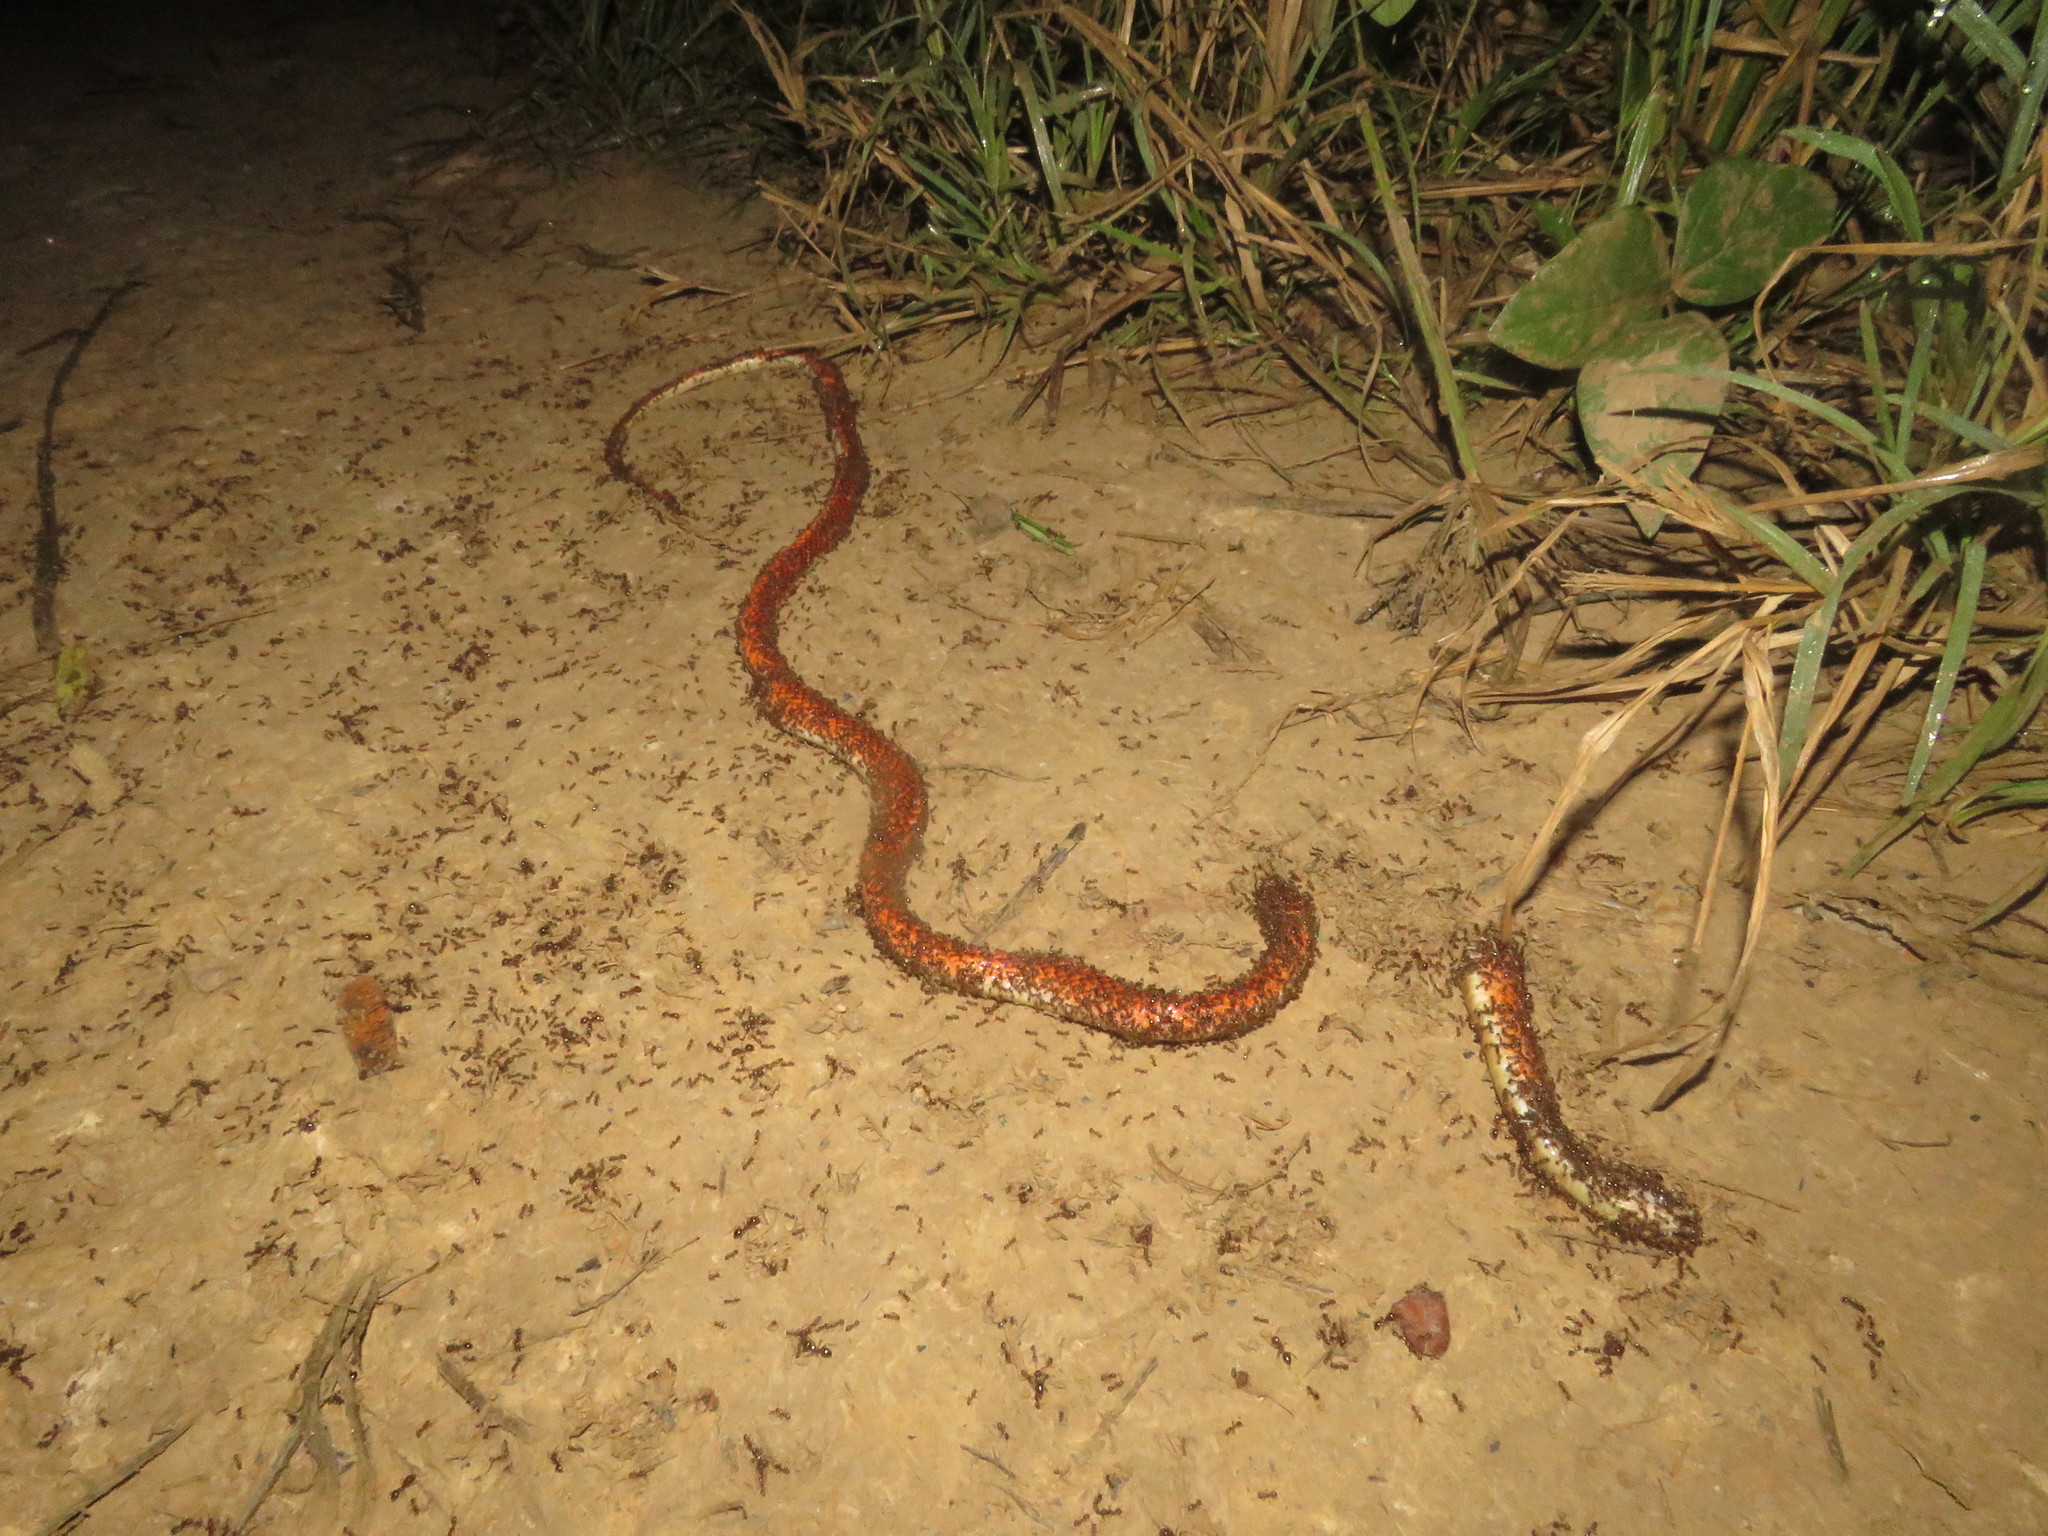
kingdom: Animalia
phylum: Chordata
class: Squamata
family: Colubridae
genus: Oxyrhopus
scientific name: Oxyrhopus melanogenys
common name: Tschudi's false coral snake
